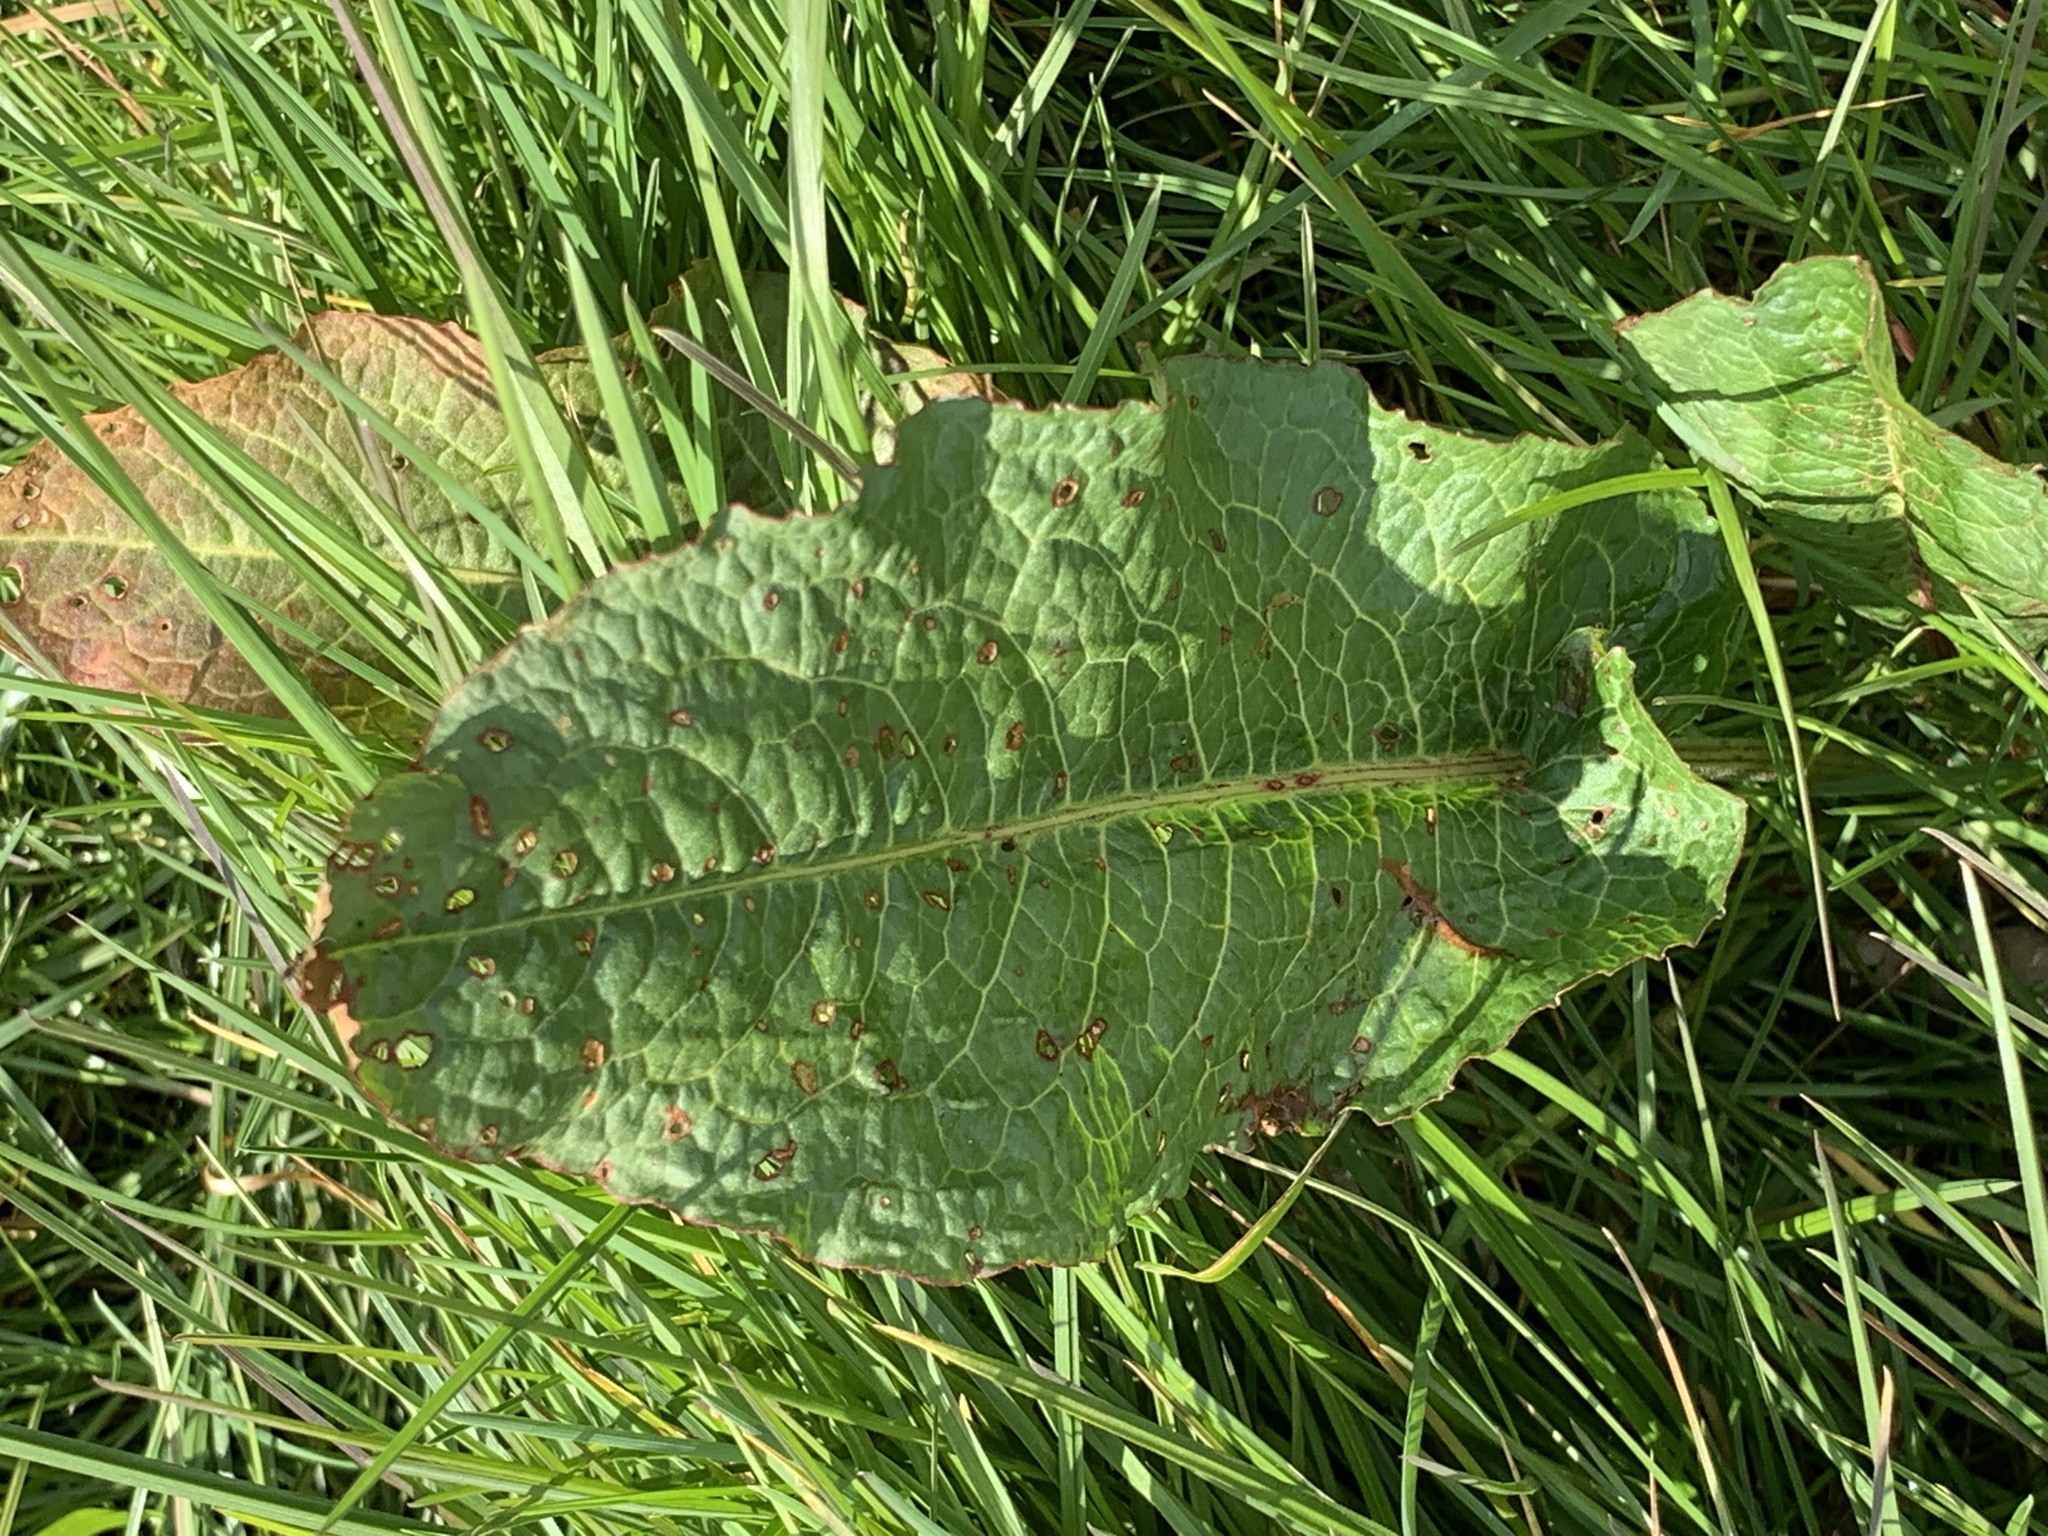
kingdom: Plantae
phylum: Tracheophyta
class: Magnoliopsida
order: Caryophyllales
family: Polygonaceae
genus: Rumex
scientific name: Rumex obtusifolius
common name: Bitter dock
